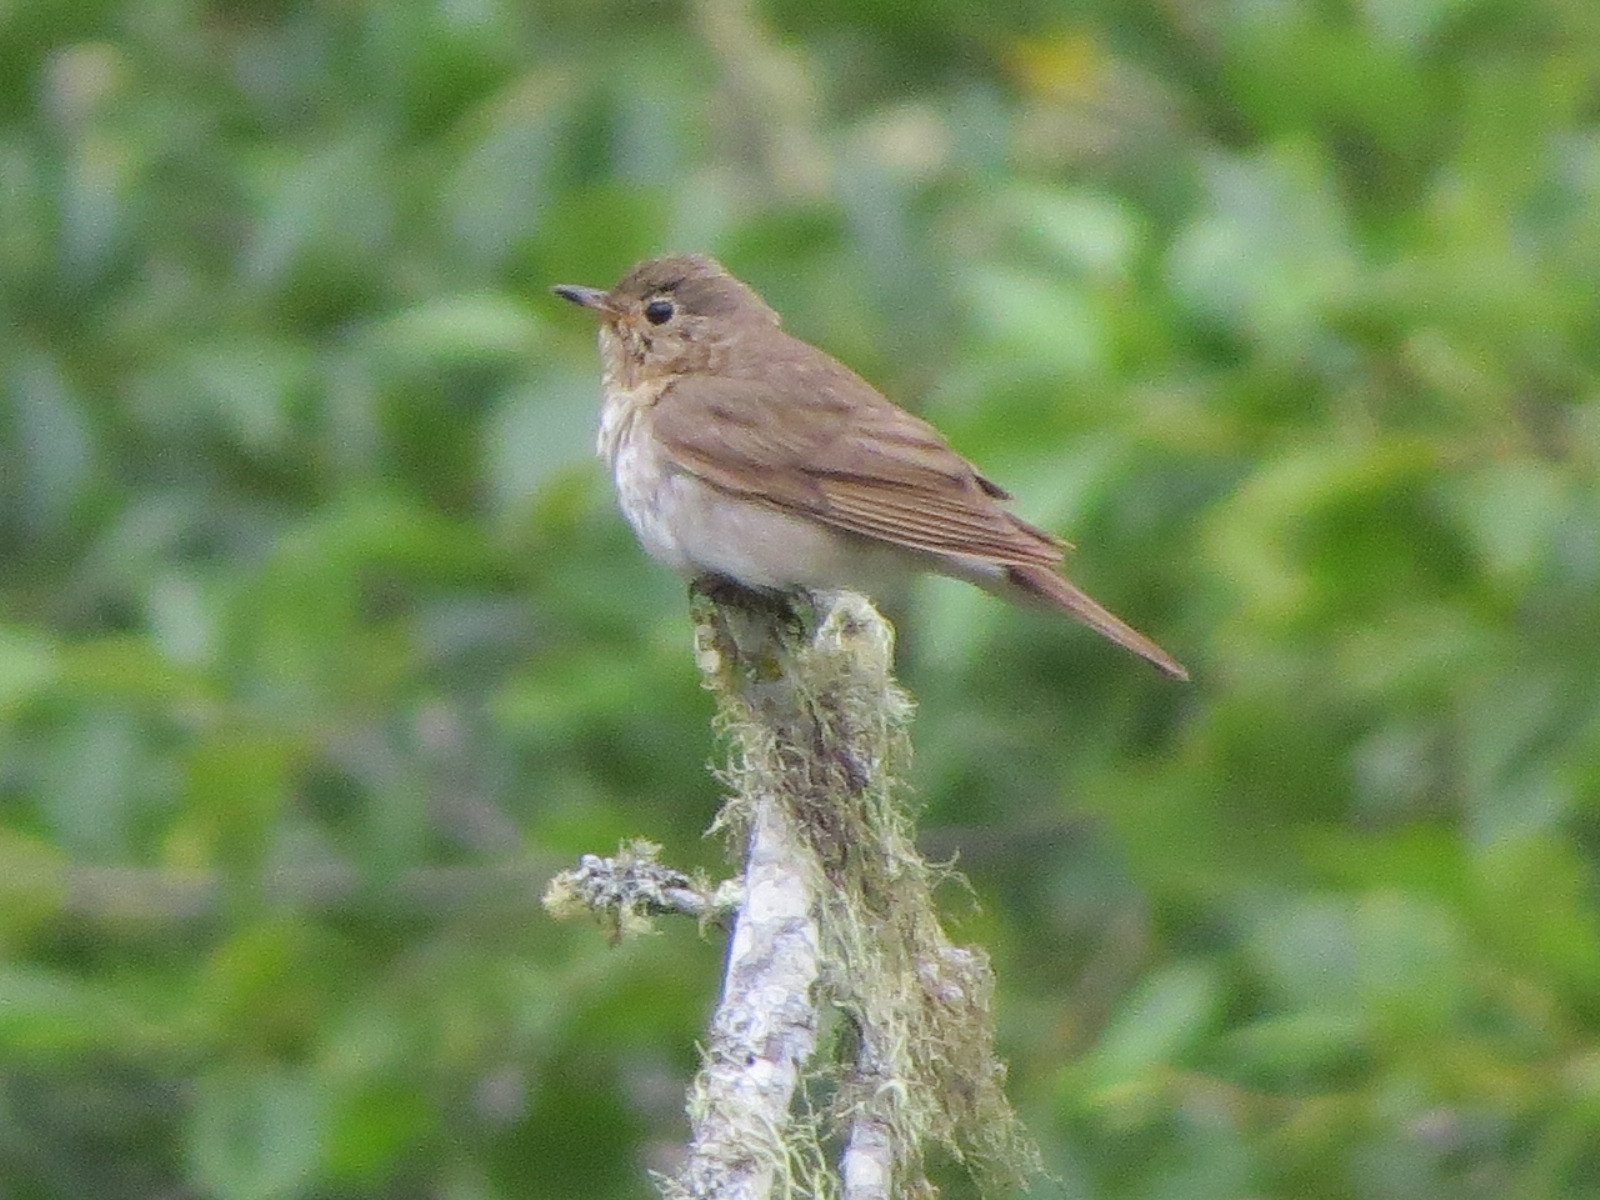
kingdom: Animalia
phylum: Chordata
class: Aves
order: Passeriformes
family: Turdidae
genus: Catharus
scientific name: Catharus ustulatus
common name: Swainson's thrush
